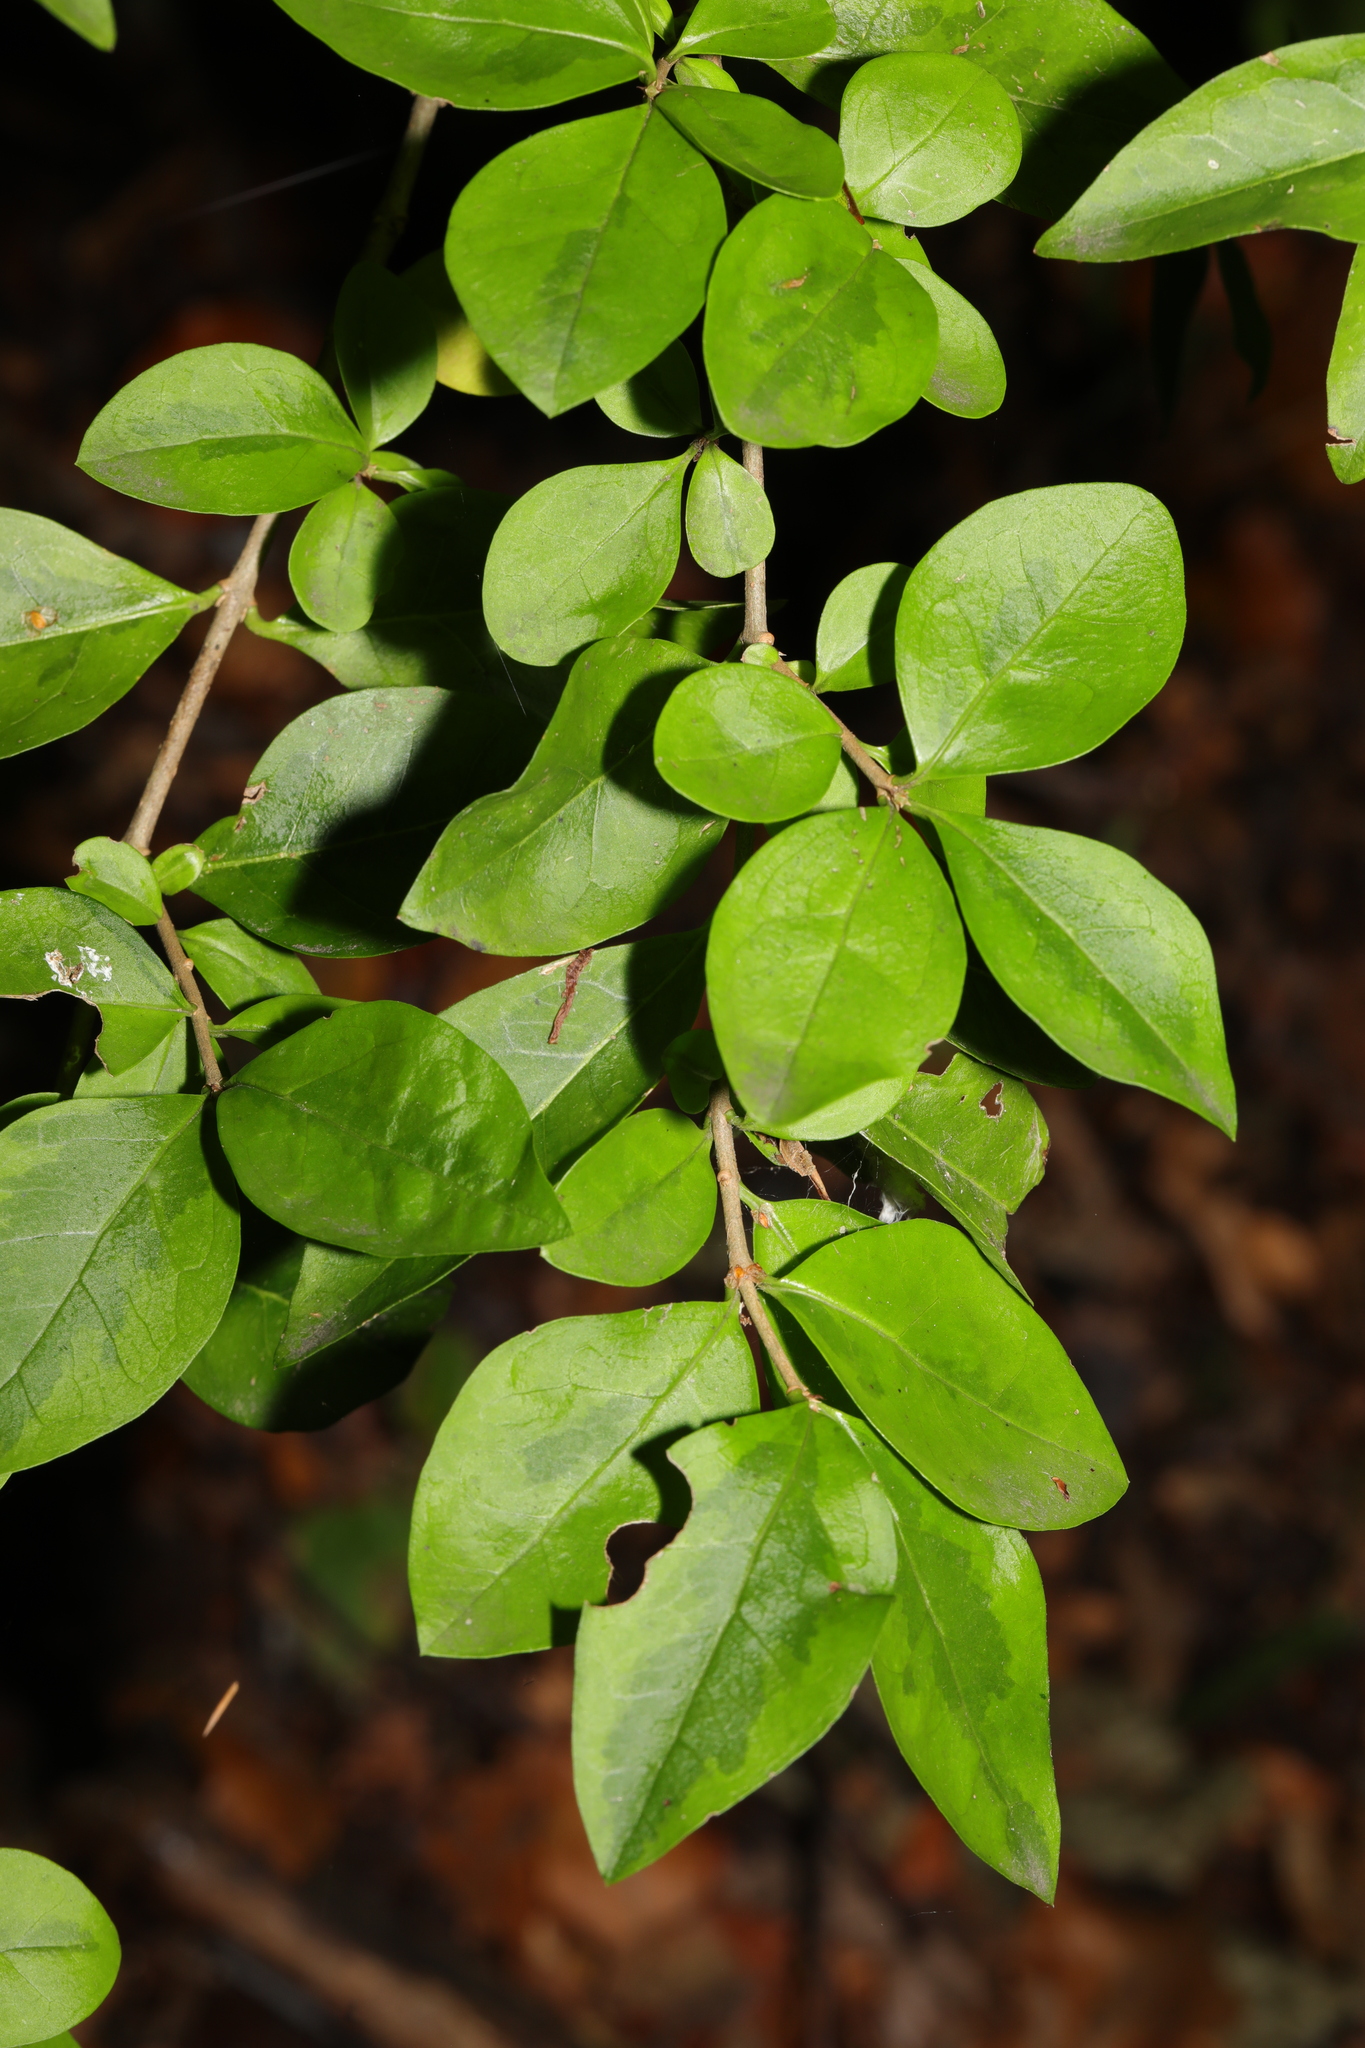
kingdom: Plantae
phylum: Tracheophyta
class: Magnoliopsida
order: Lamiales
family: Oleaceae
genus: Ligustrum
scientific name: Ligustrum ovalifolium
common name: California privet
